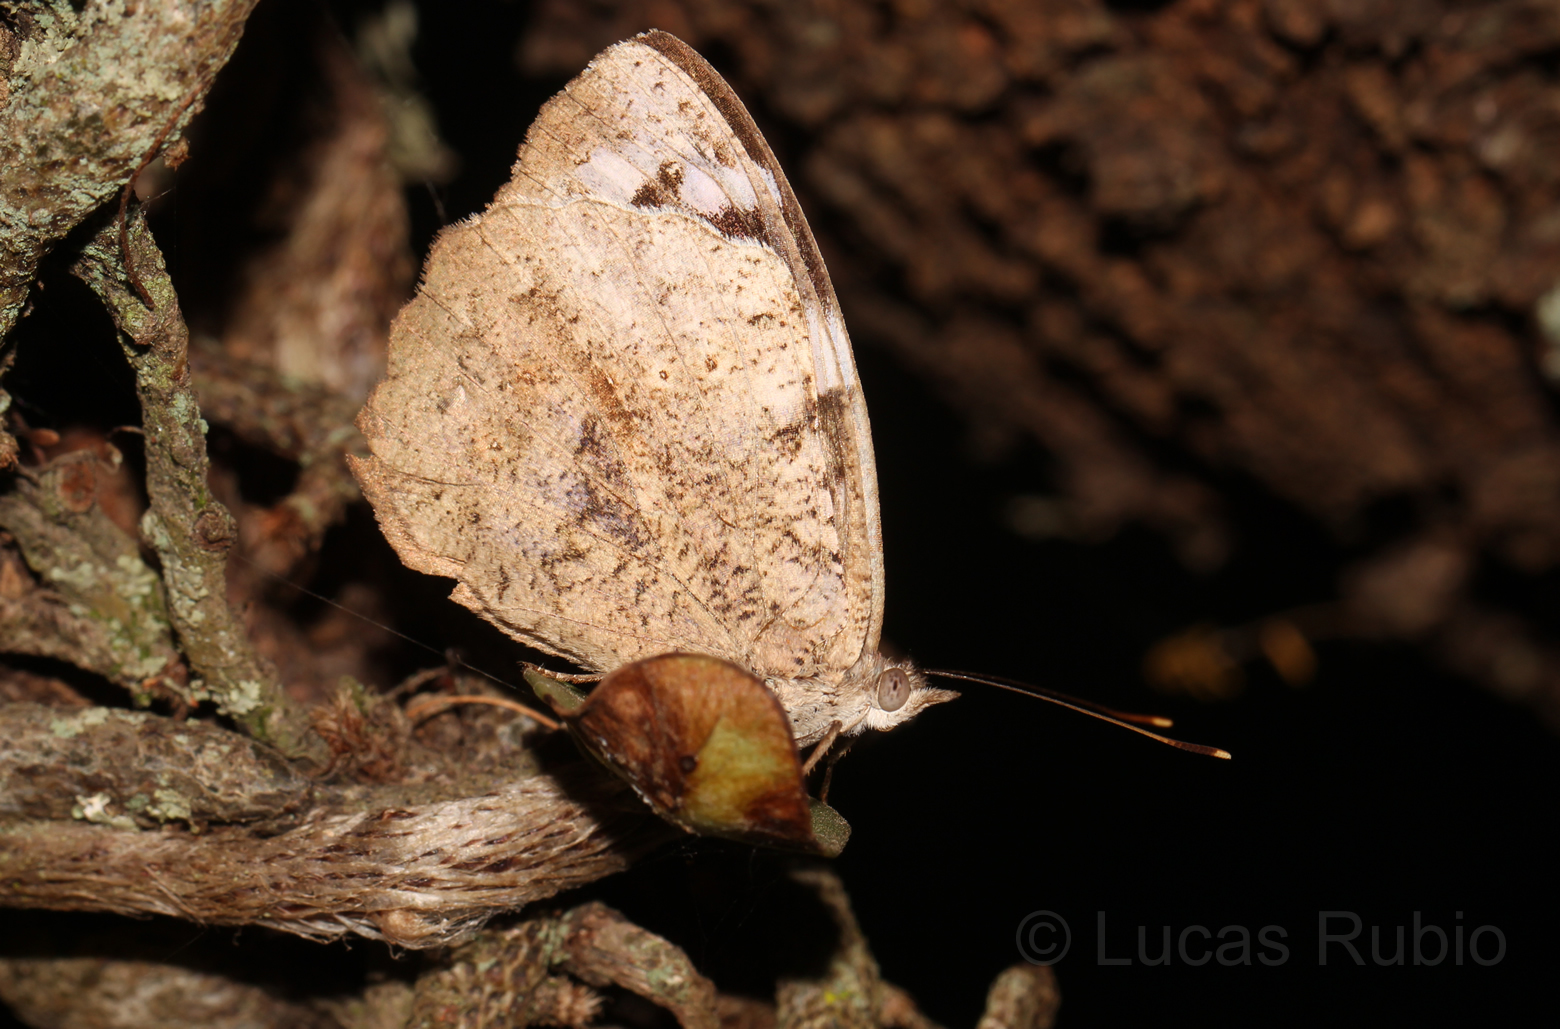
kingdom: Animalia
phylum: Arthropoda
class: Insecta
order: Lepidoptera
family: Nymphalidae
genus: Eunica
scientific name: Eunica eburnea
